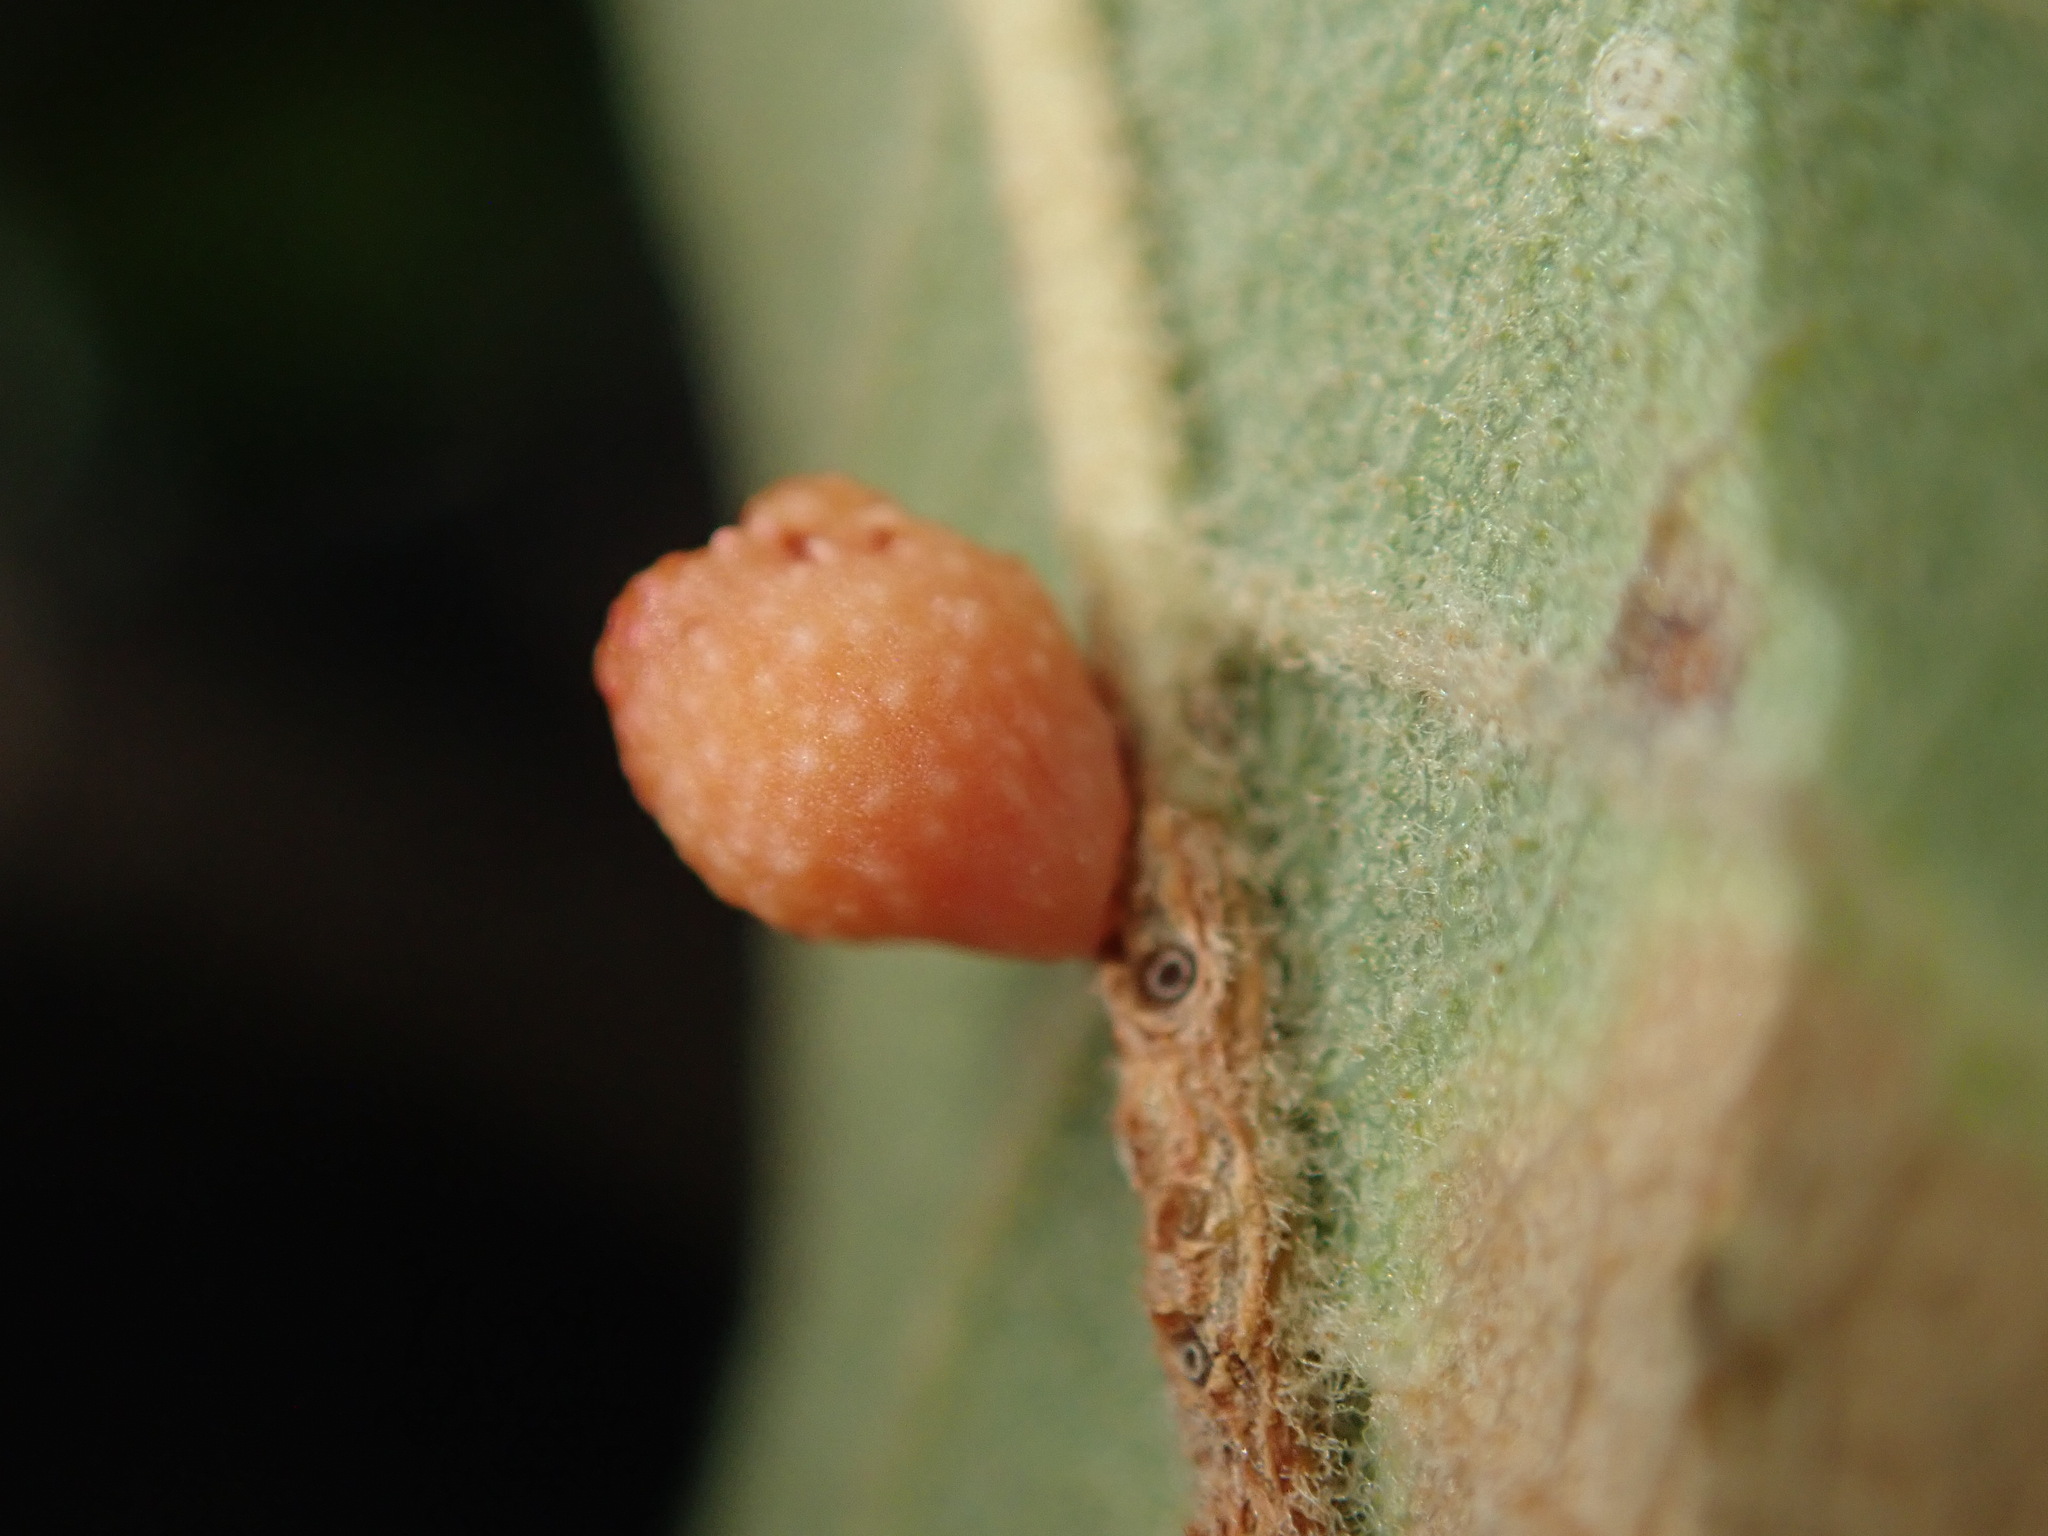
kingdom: Animalia
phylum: Arthropoda
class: Insecta
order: Hymenoptera
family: Cynipidae
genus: Callirhytis
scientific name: Callirhytis
